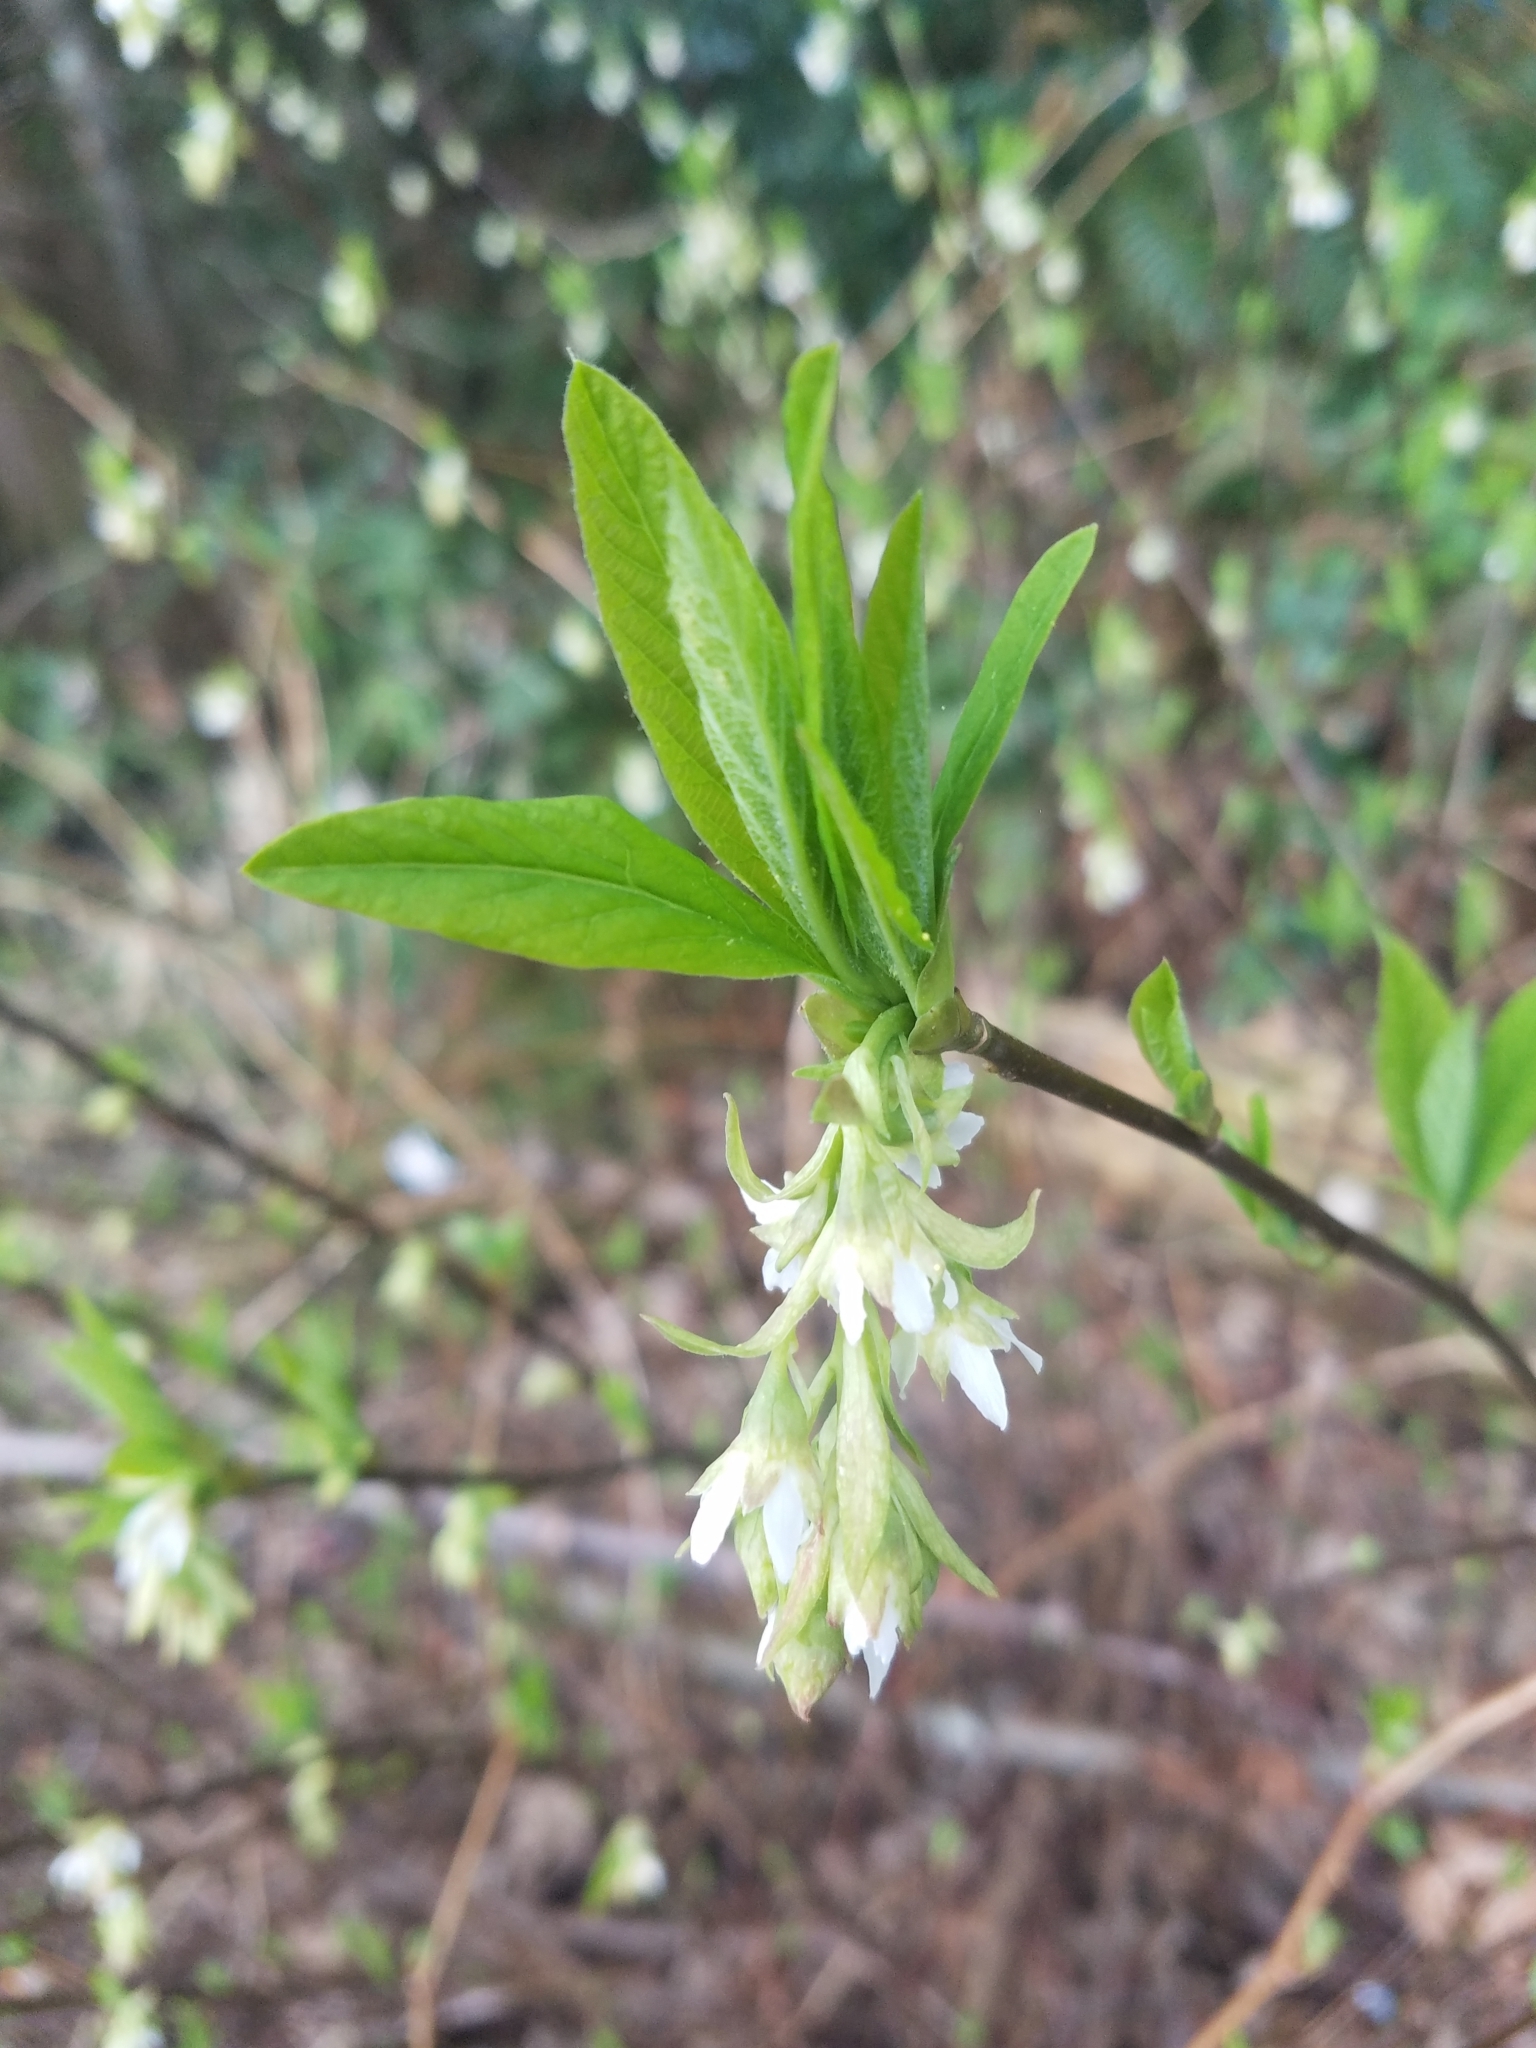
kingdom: Plantae
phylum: Tracheophyta
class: Magnoliopsida
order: Rosales
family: Rosaceae
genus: Oemleria
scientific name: Oemleria cerasiformis
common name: Osoberry
